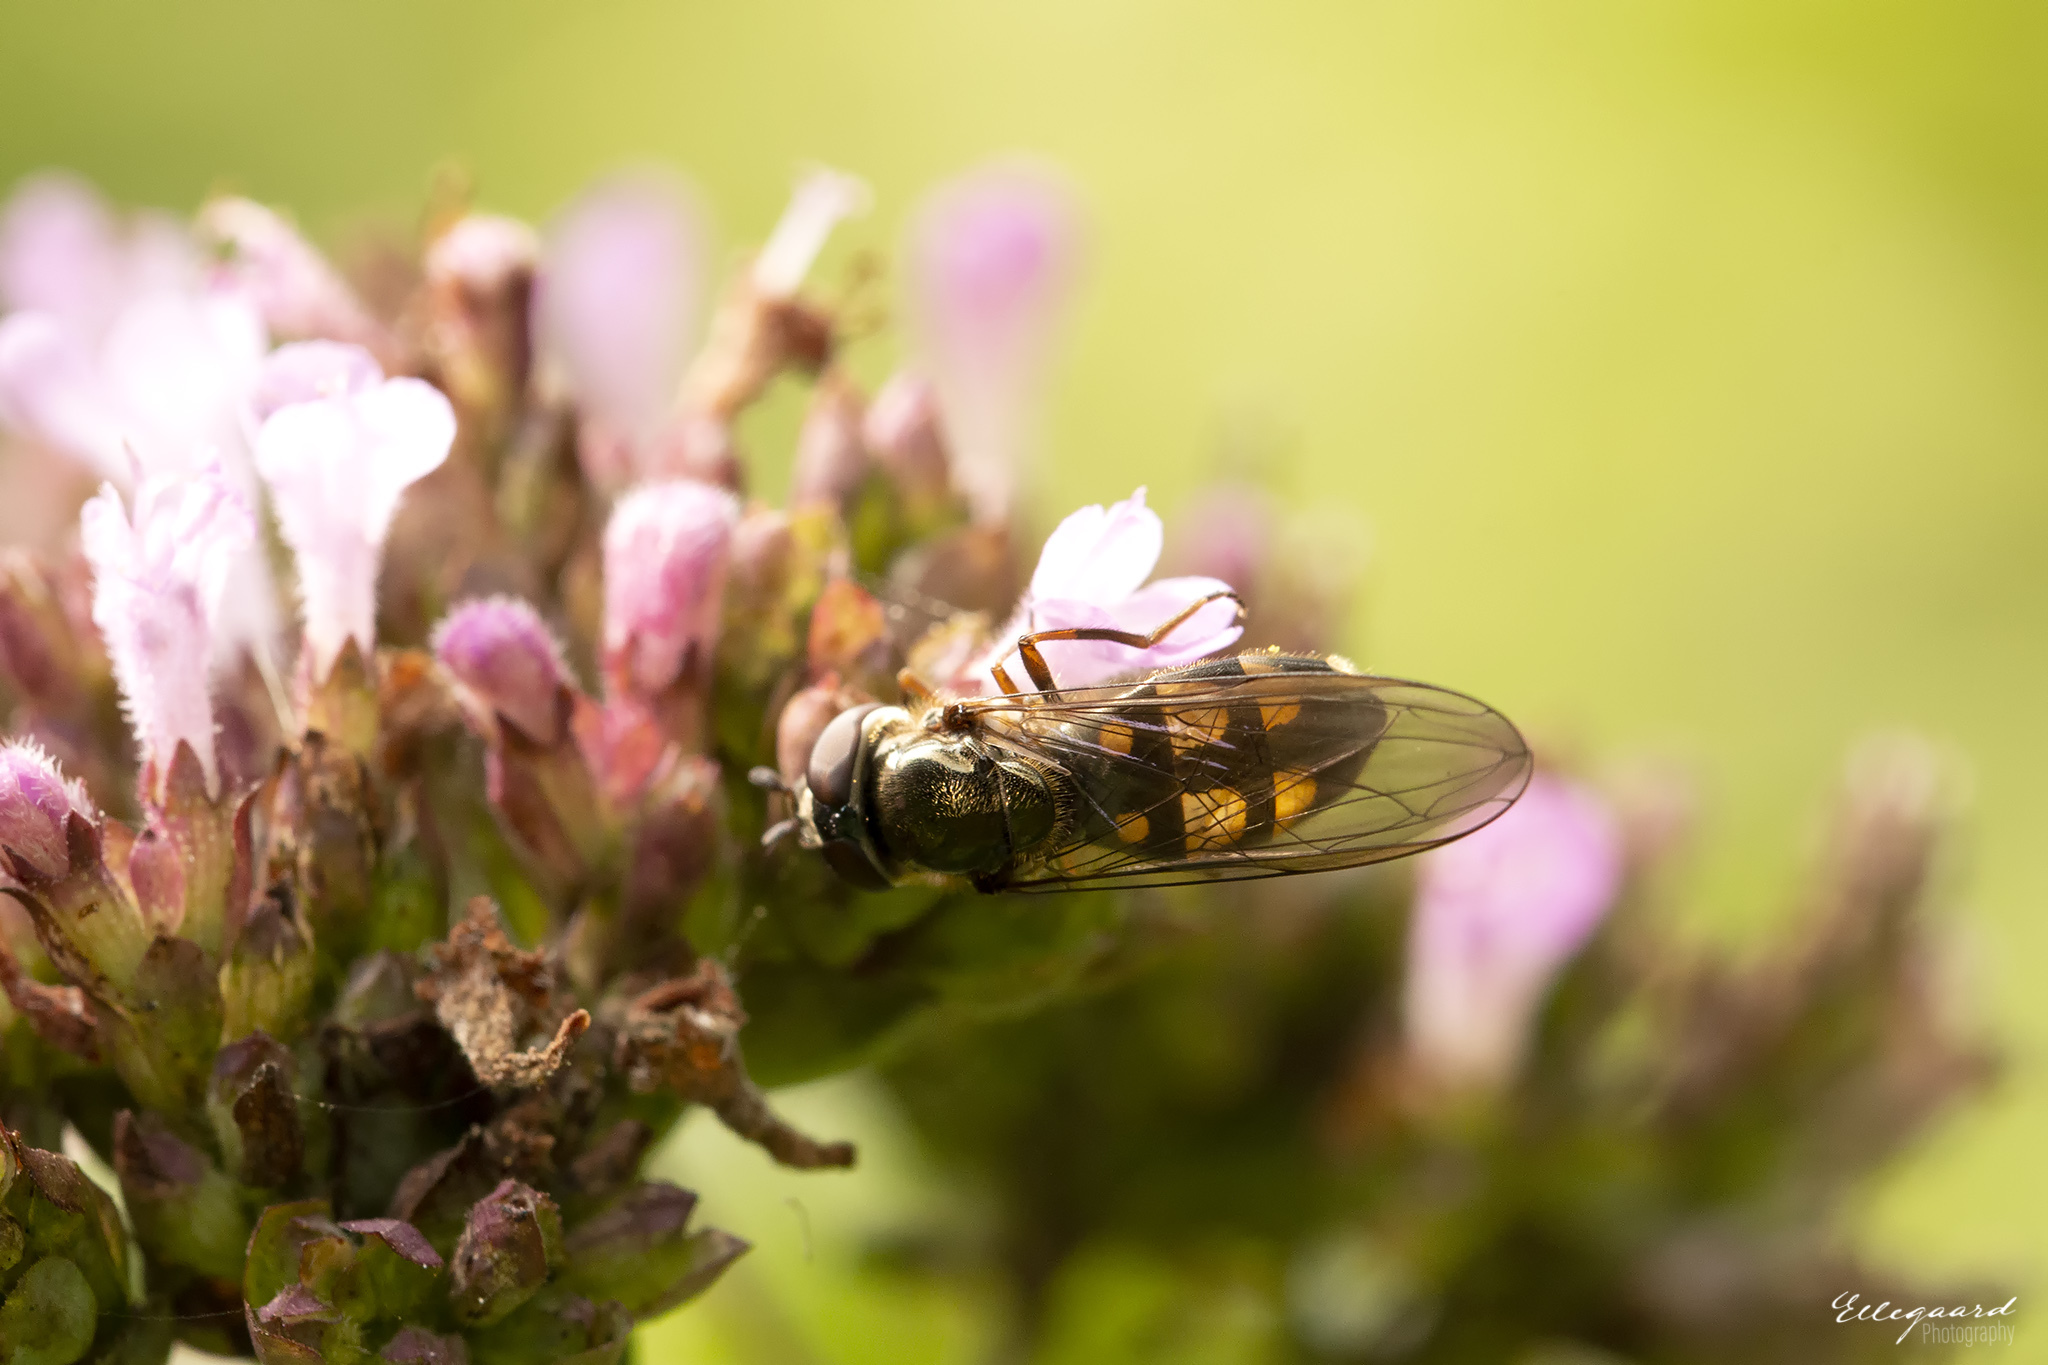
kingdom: Animalia
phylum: Arthropoda
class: Insecta
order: Diptera
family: Syrphidae
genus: Xanthandrus
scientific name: Xanthandrus comtus
